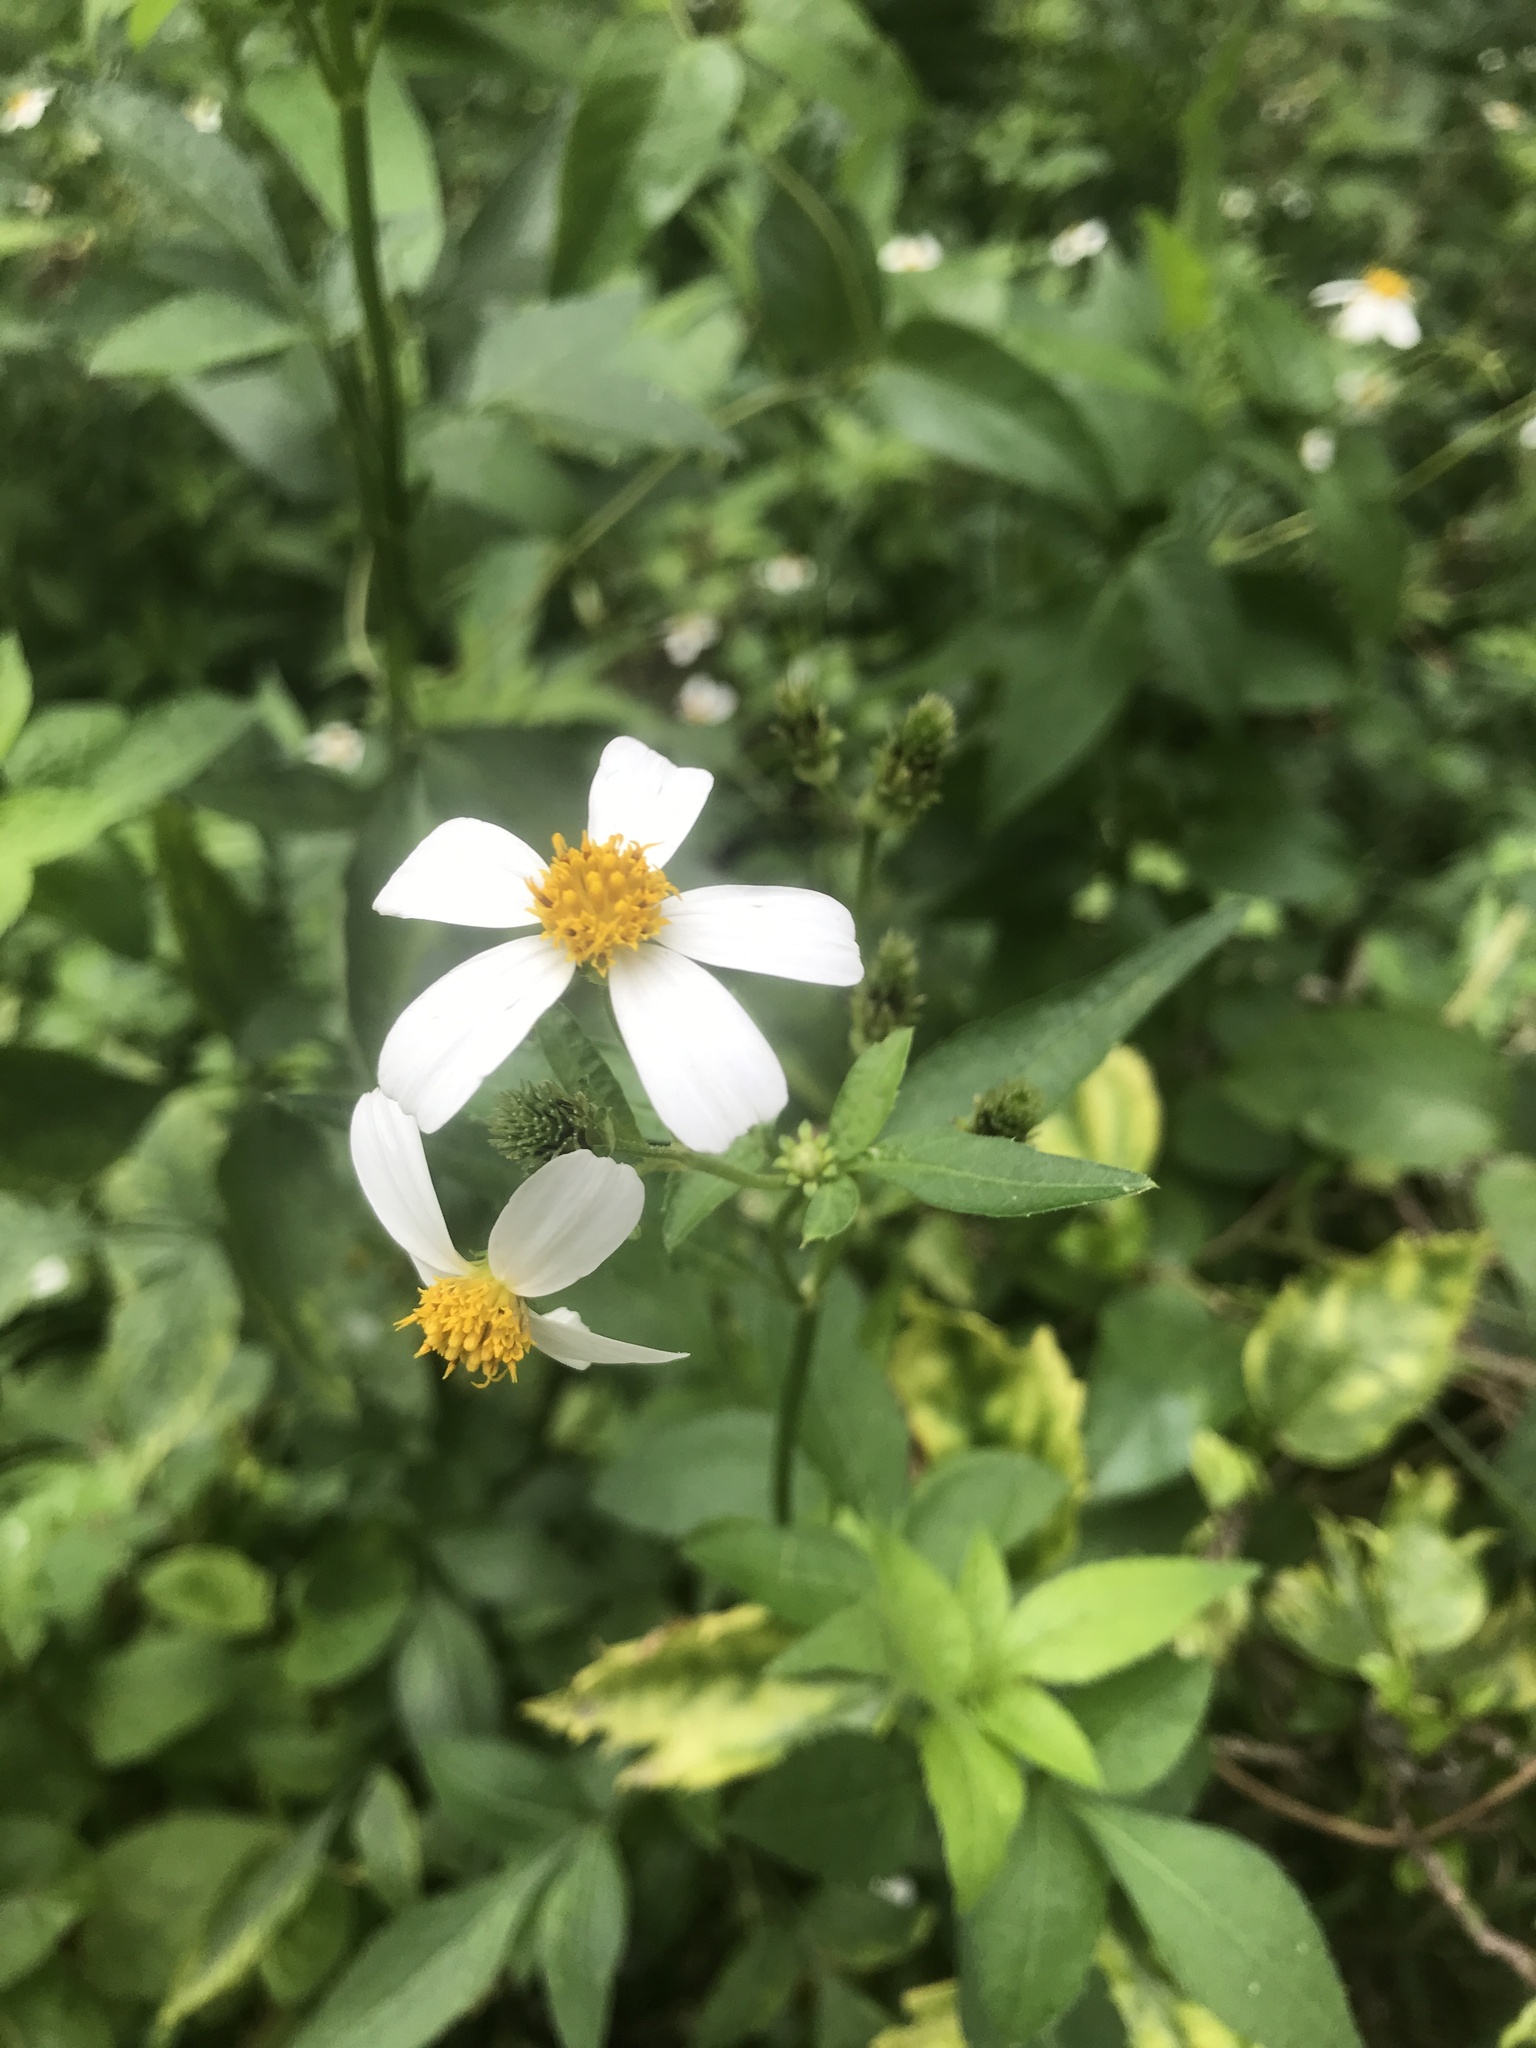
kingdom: Plantae
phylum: Tracheophyta
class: Magnoliopsida
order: Asterales
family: Asteraceae
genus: Bidens
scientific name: Bidens alba
